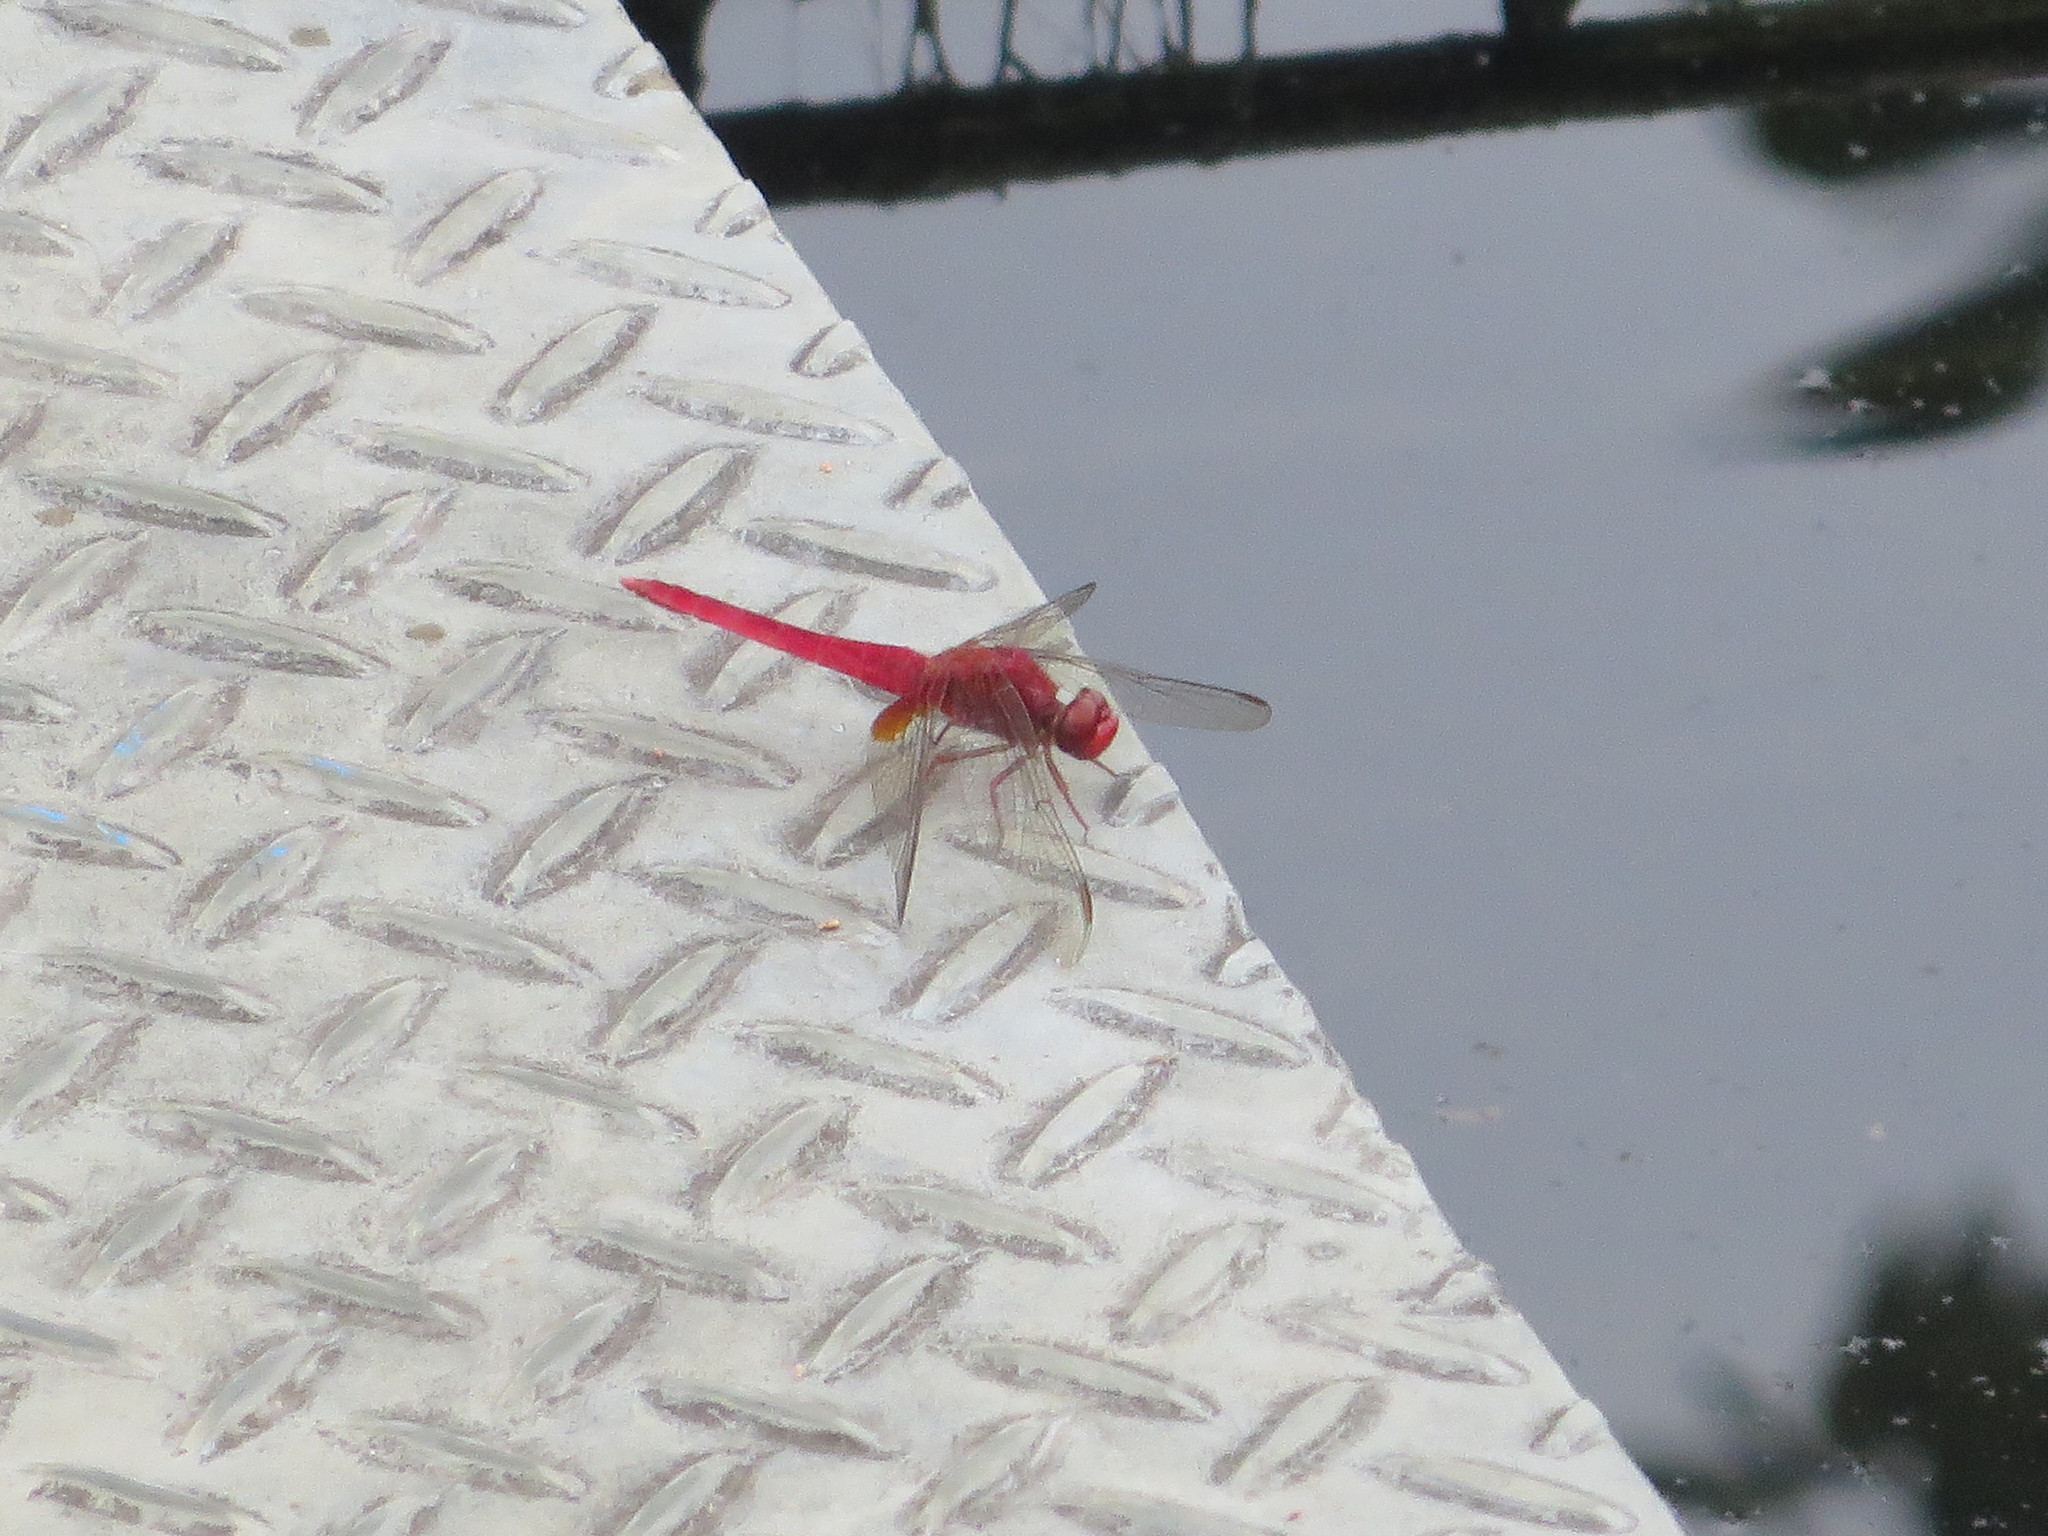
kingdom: Animalia
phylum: Arthropoda
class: Insecta
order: Odonata
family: Libellulidae
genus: Crocothemis
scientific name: Crocothemis servilia
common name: Scarlet skimmer
